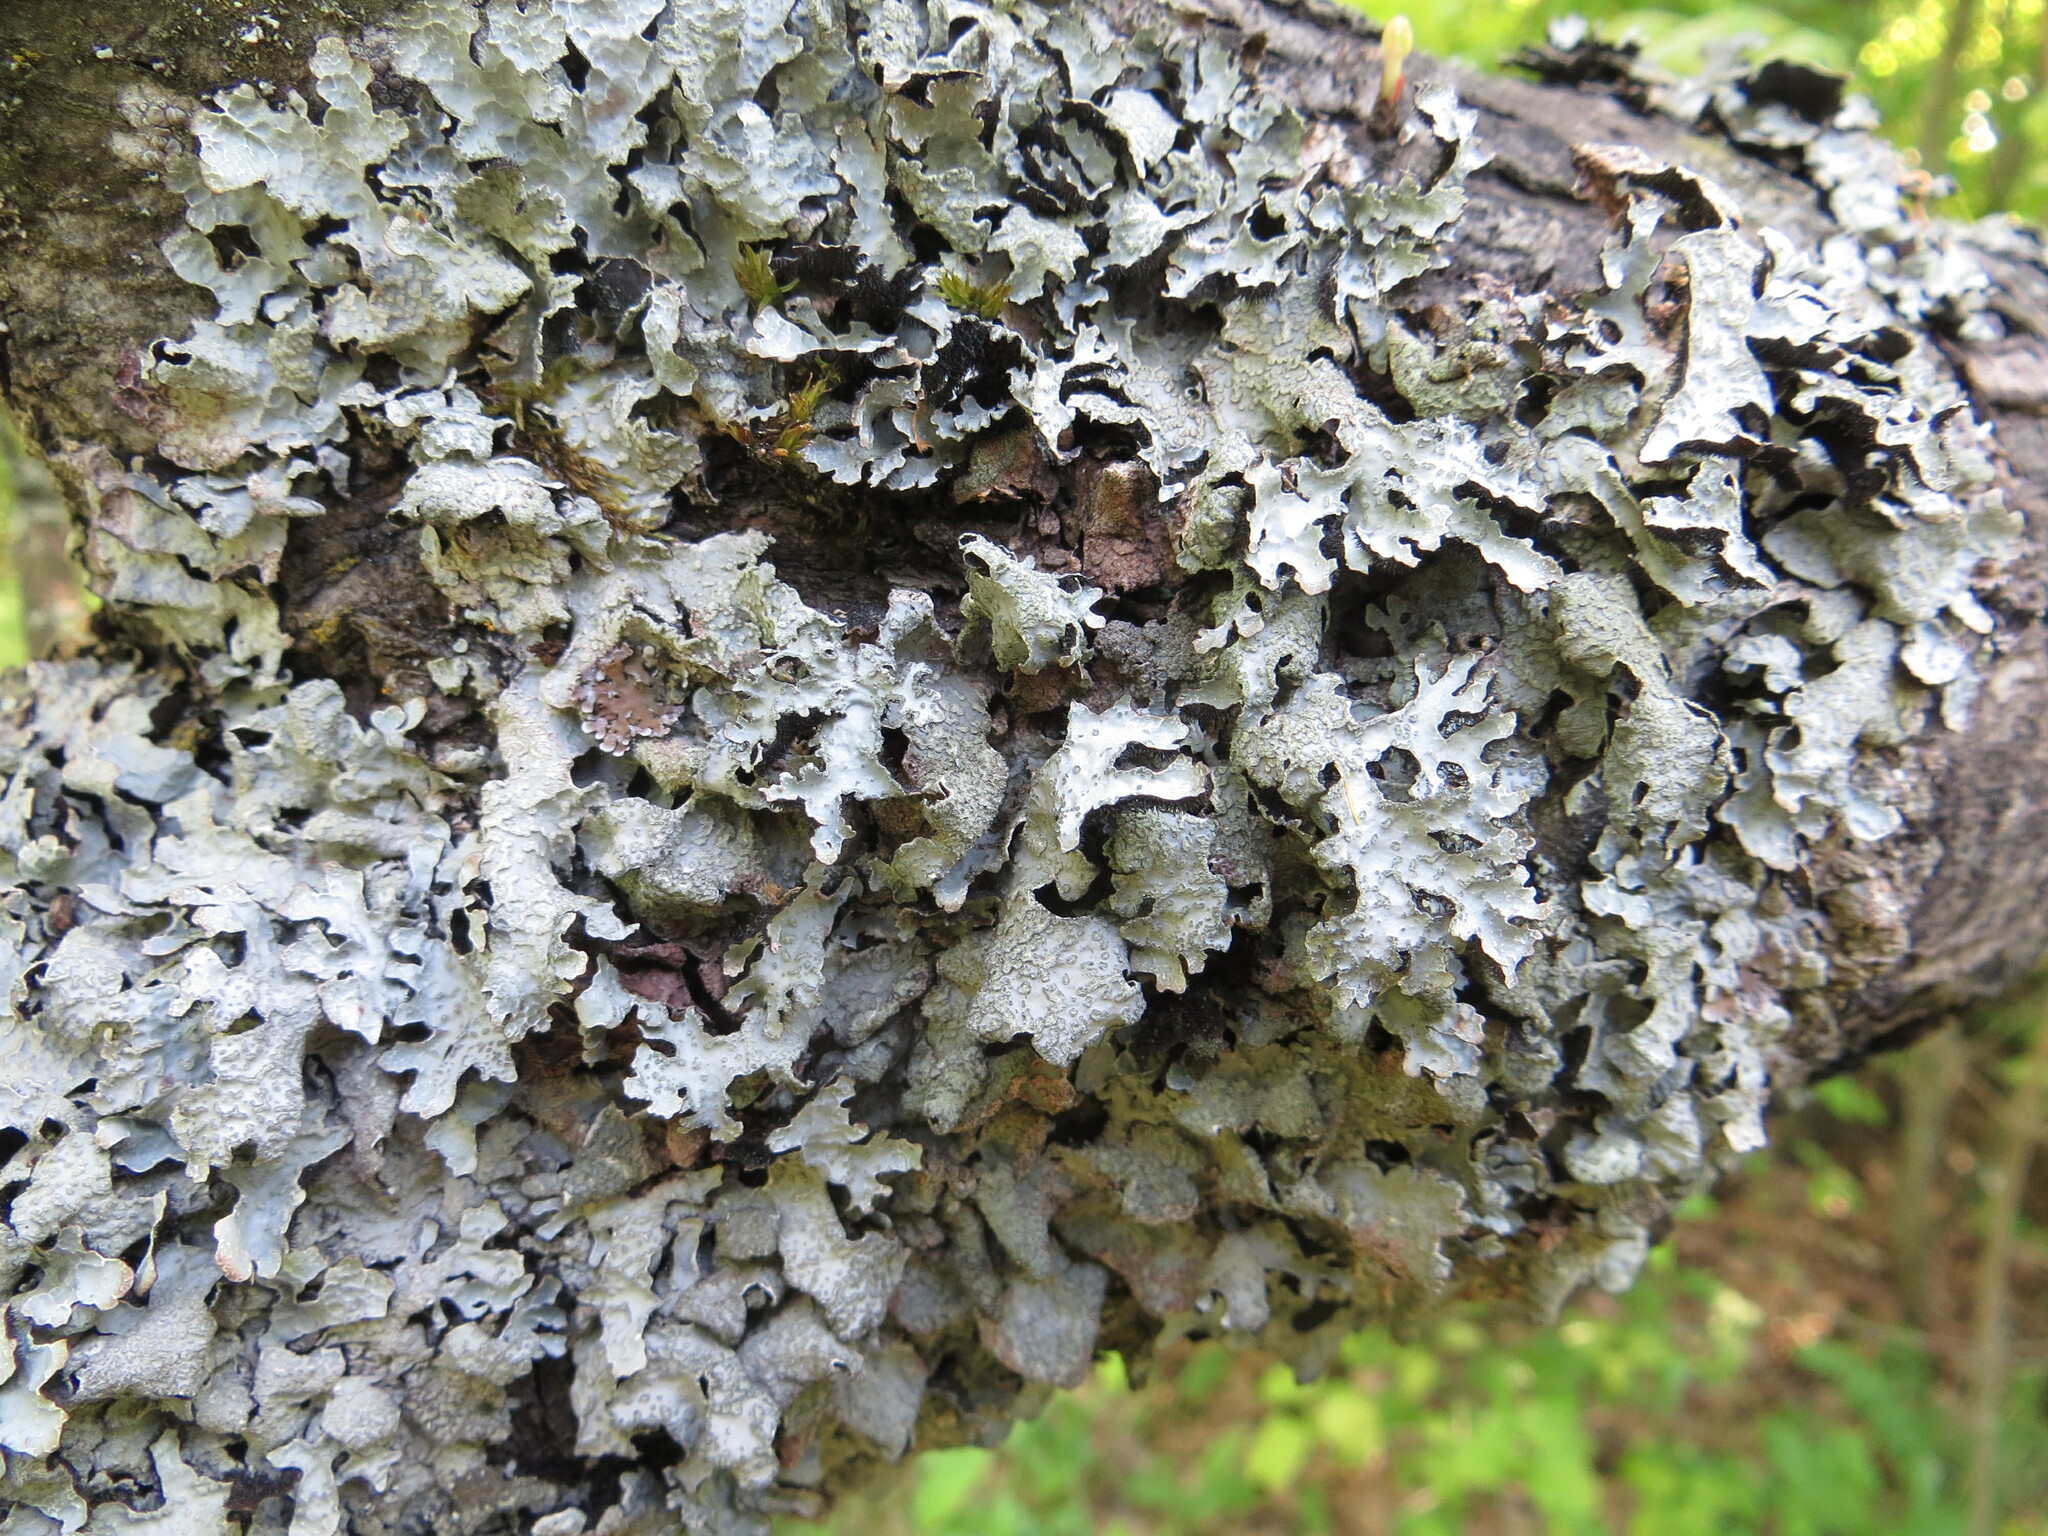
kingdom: Fungi
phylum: Ascomycota
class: Lecanoromycetes
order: Lecanorales
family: Parmeliaceae
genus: Parmelia
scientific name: Parmelia sulcata
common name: Netted shield lichen
